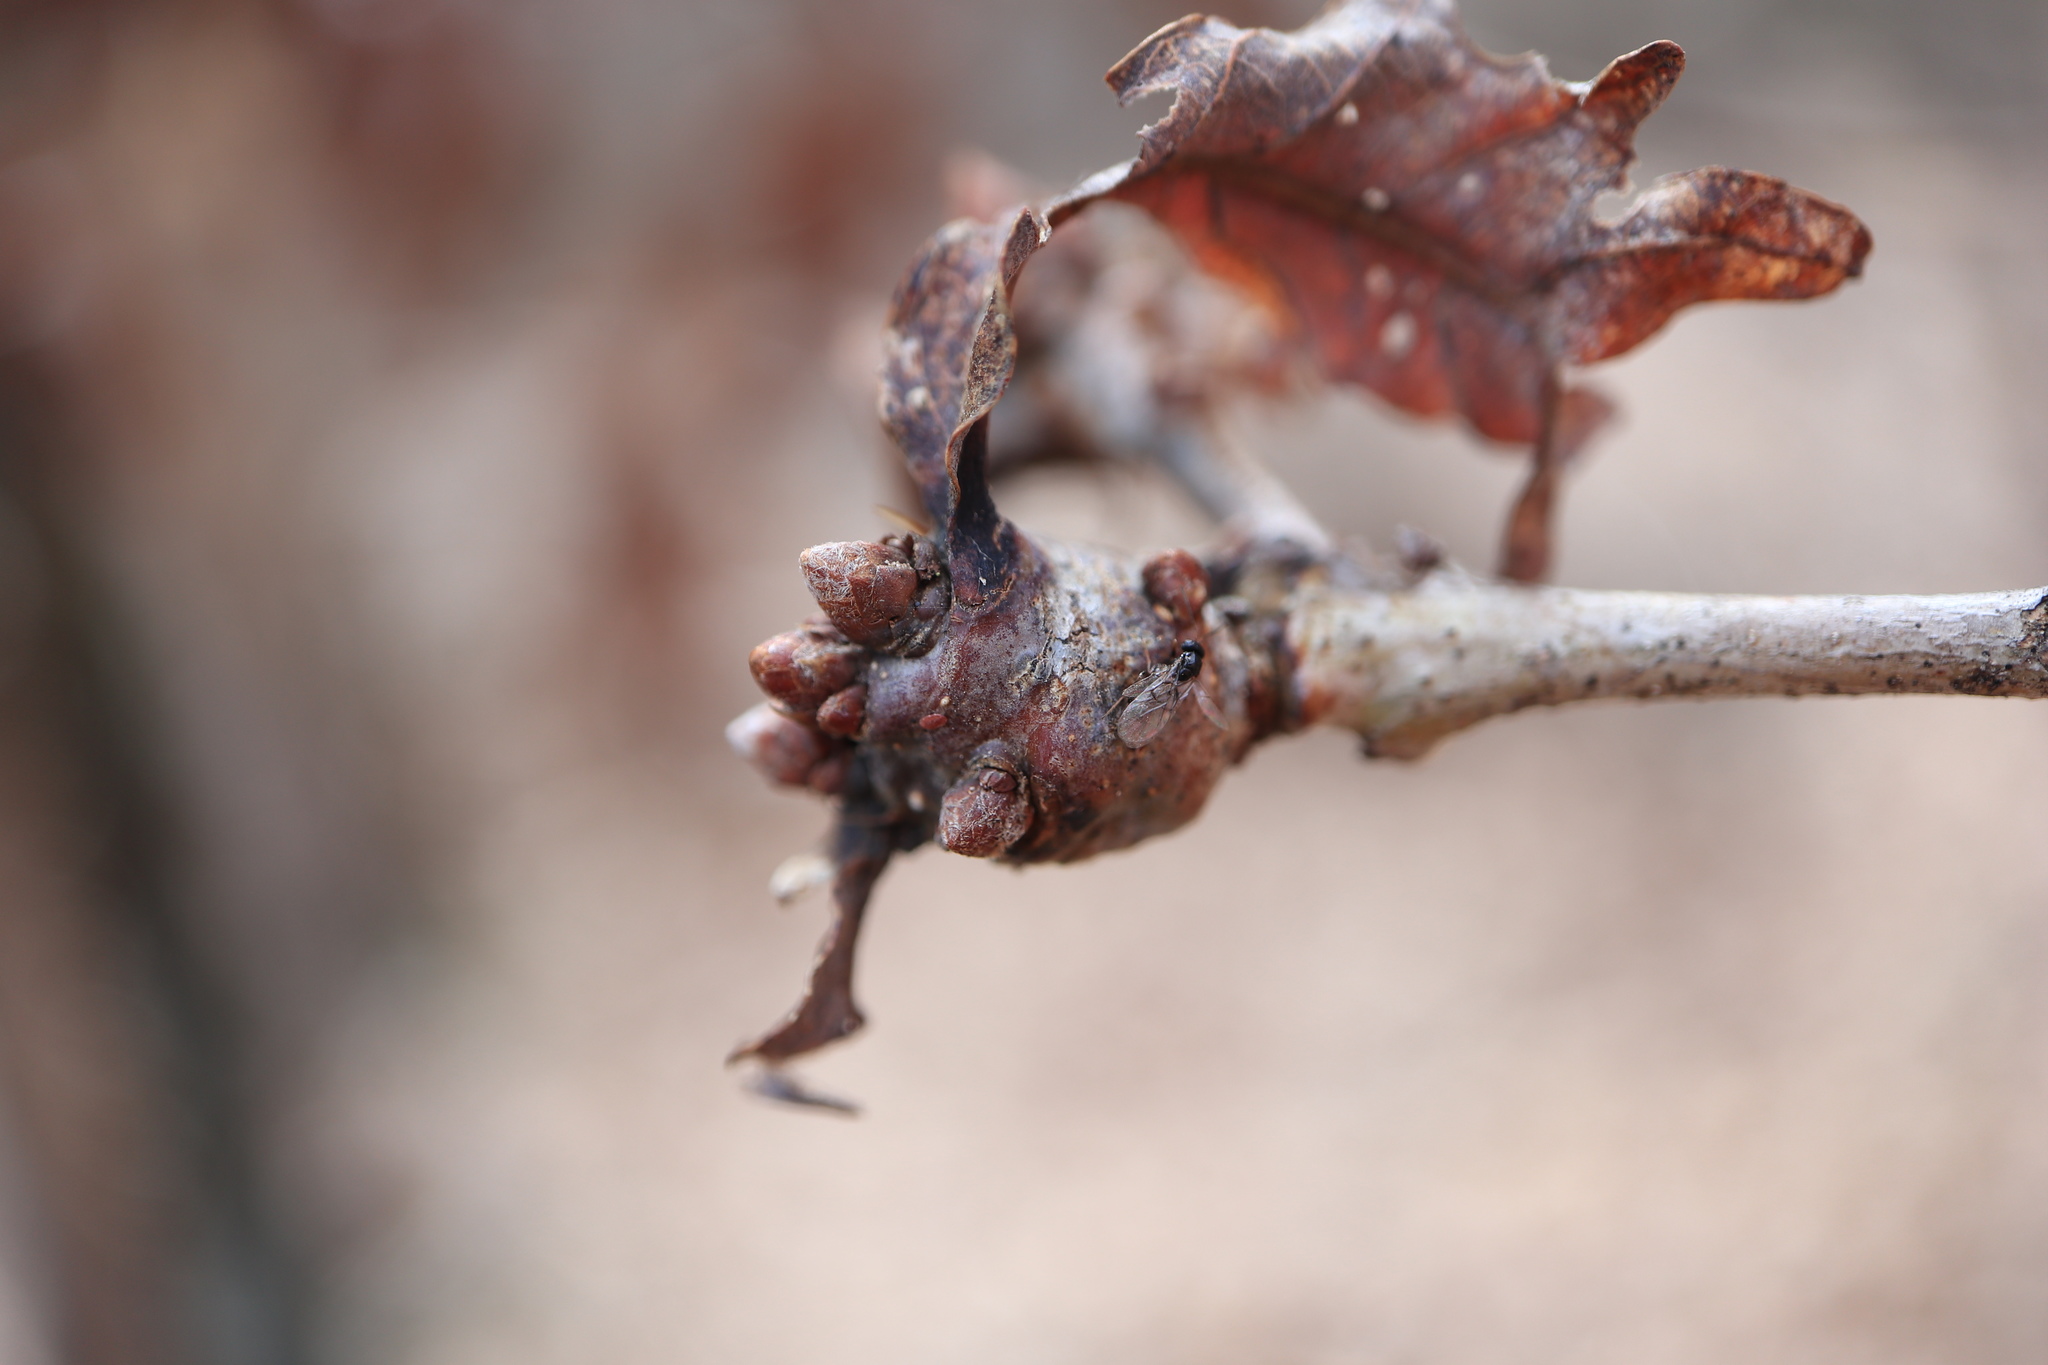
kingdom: Animalia
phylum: Arthropoda
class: Insecta
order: Hymenoptera
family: Cynipidae
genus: Neuroterus
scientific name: Neuroterus quercusbaccarum
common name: Common spangle gall
